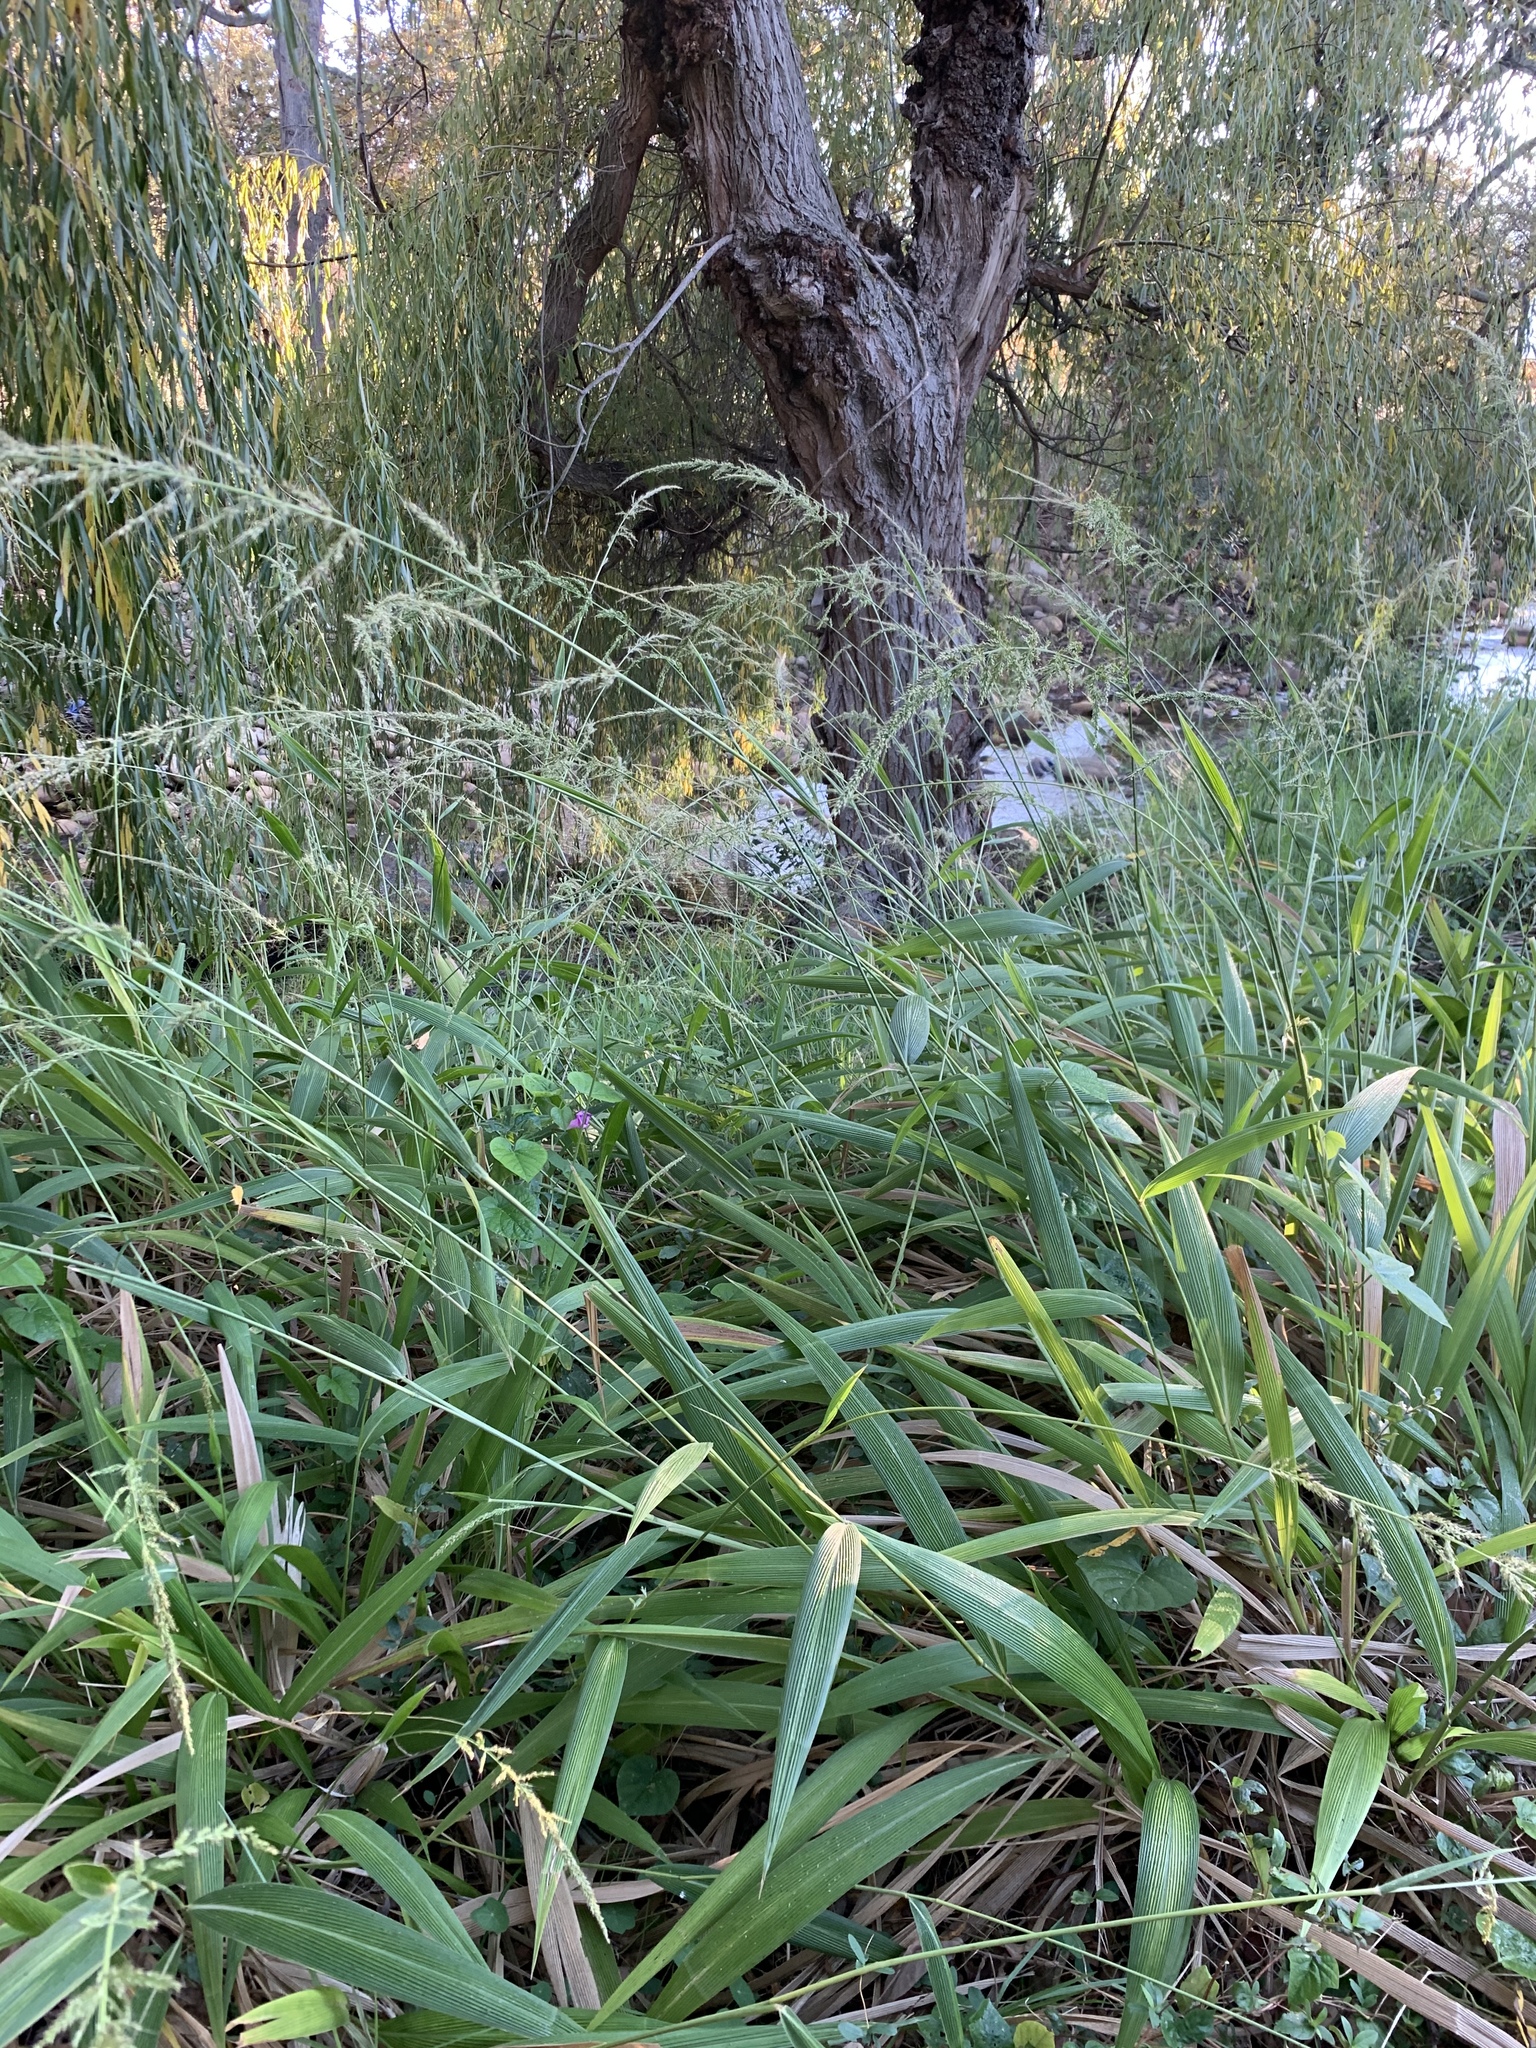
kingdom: Plantae
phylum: Tracheophyta
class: Liliopsida
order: Poales
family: Poaceae
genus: Setaria
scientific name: Setaria megaphylla
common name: Bigleaf bristlegrass
